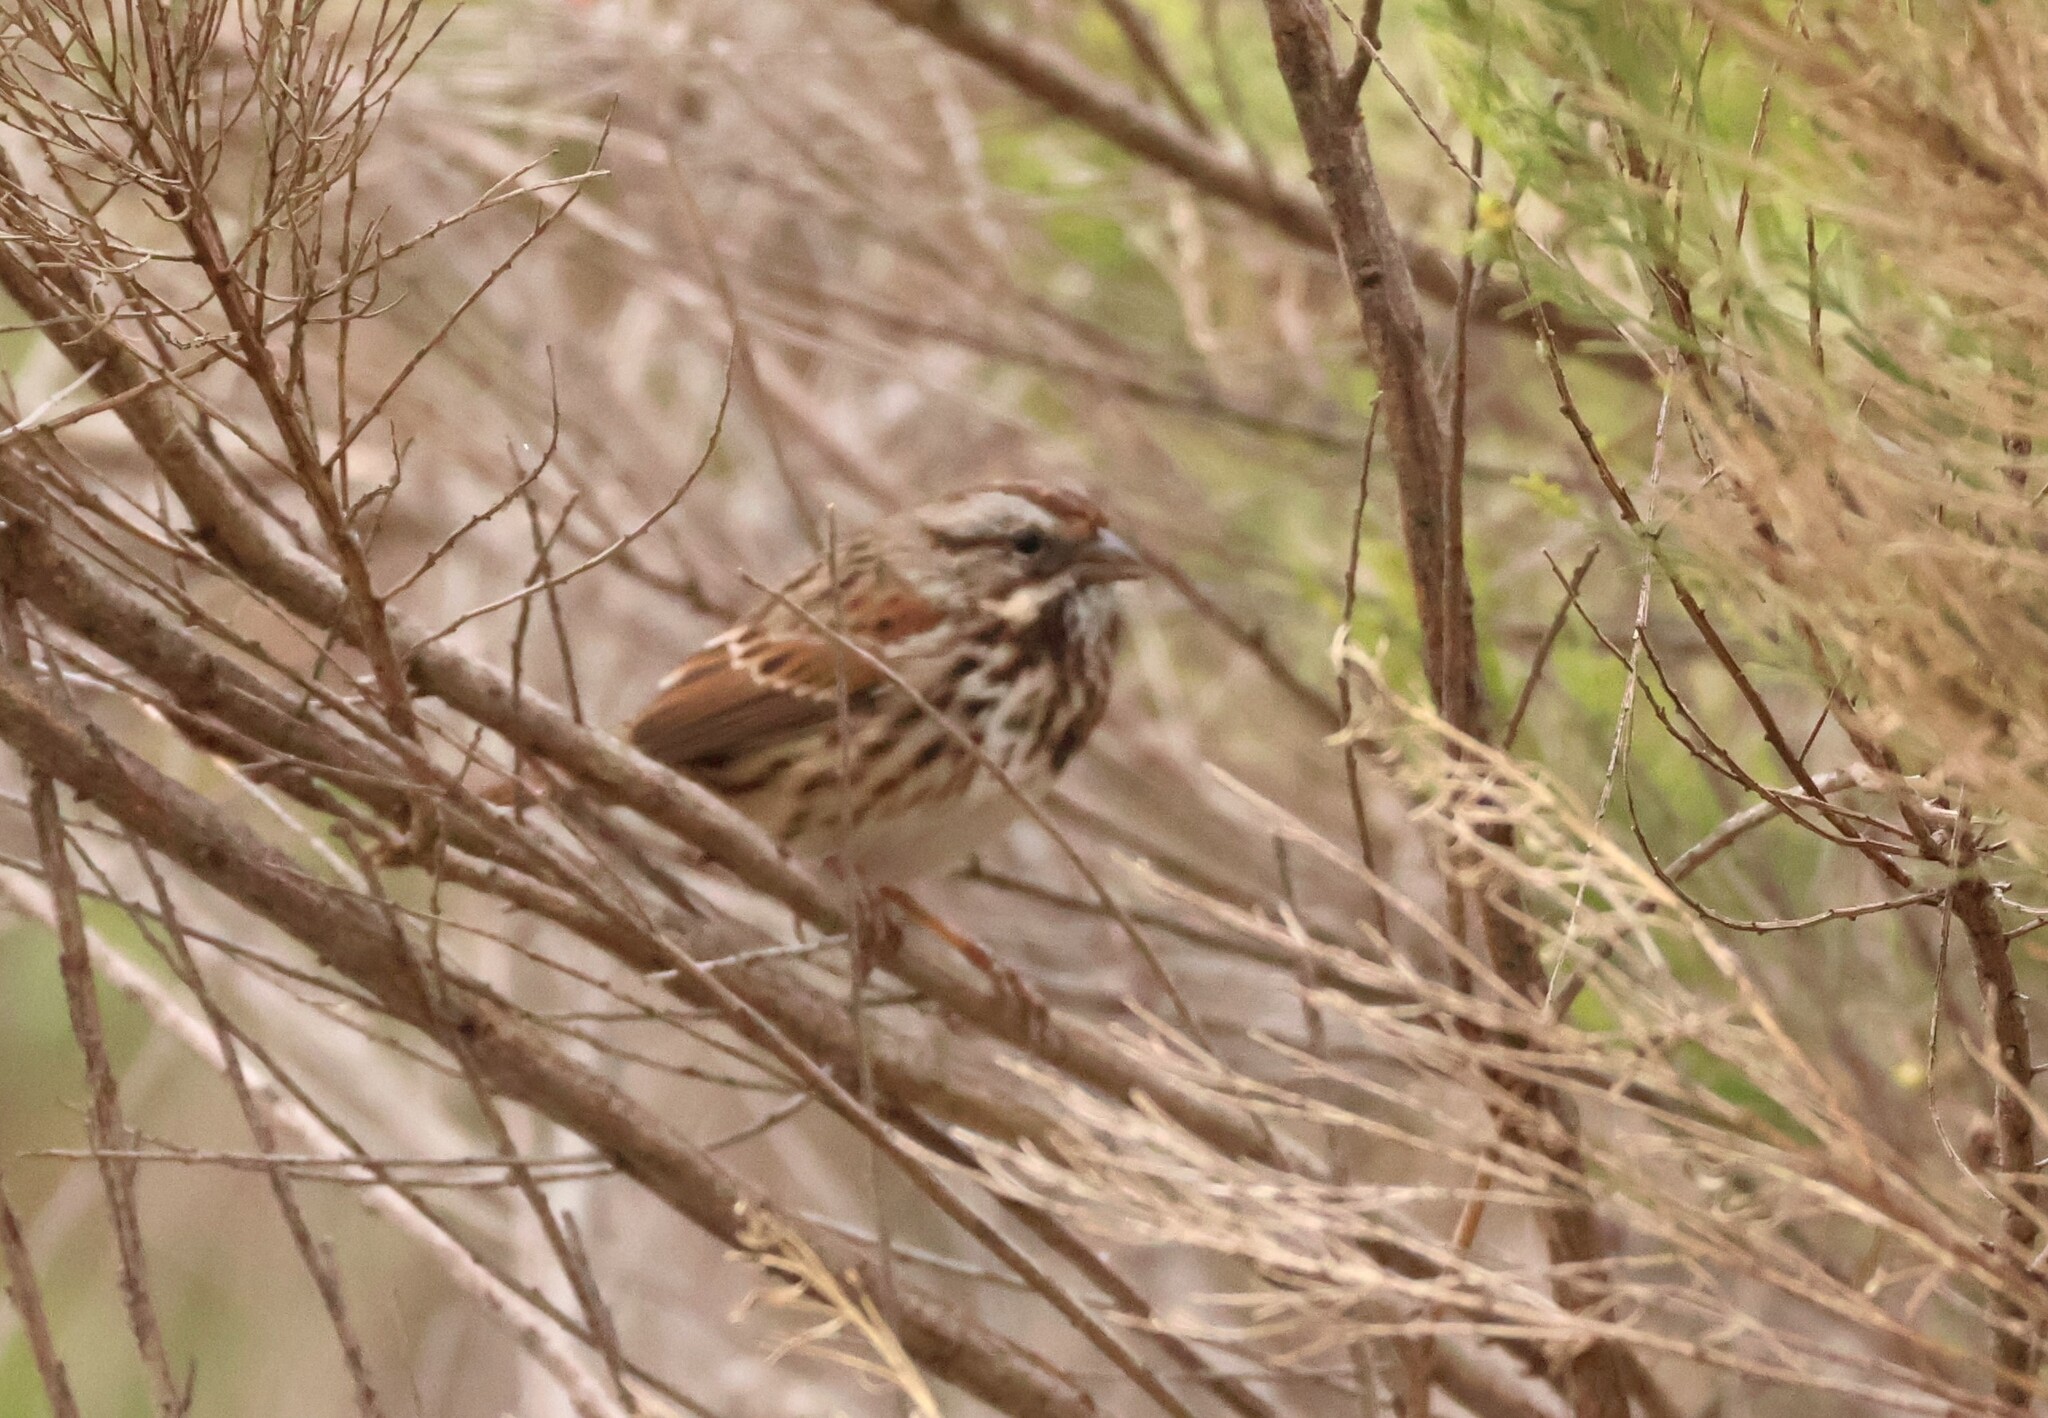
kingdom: Animalia
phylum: Chordata
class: Aves
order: Passeriformes
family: Passerellidae
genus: Melospiza
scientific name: Melospiza melodia
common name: Song sparrow
